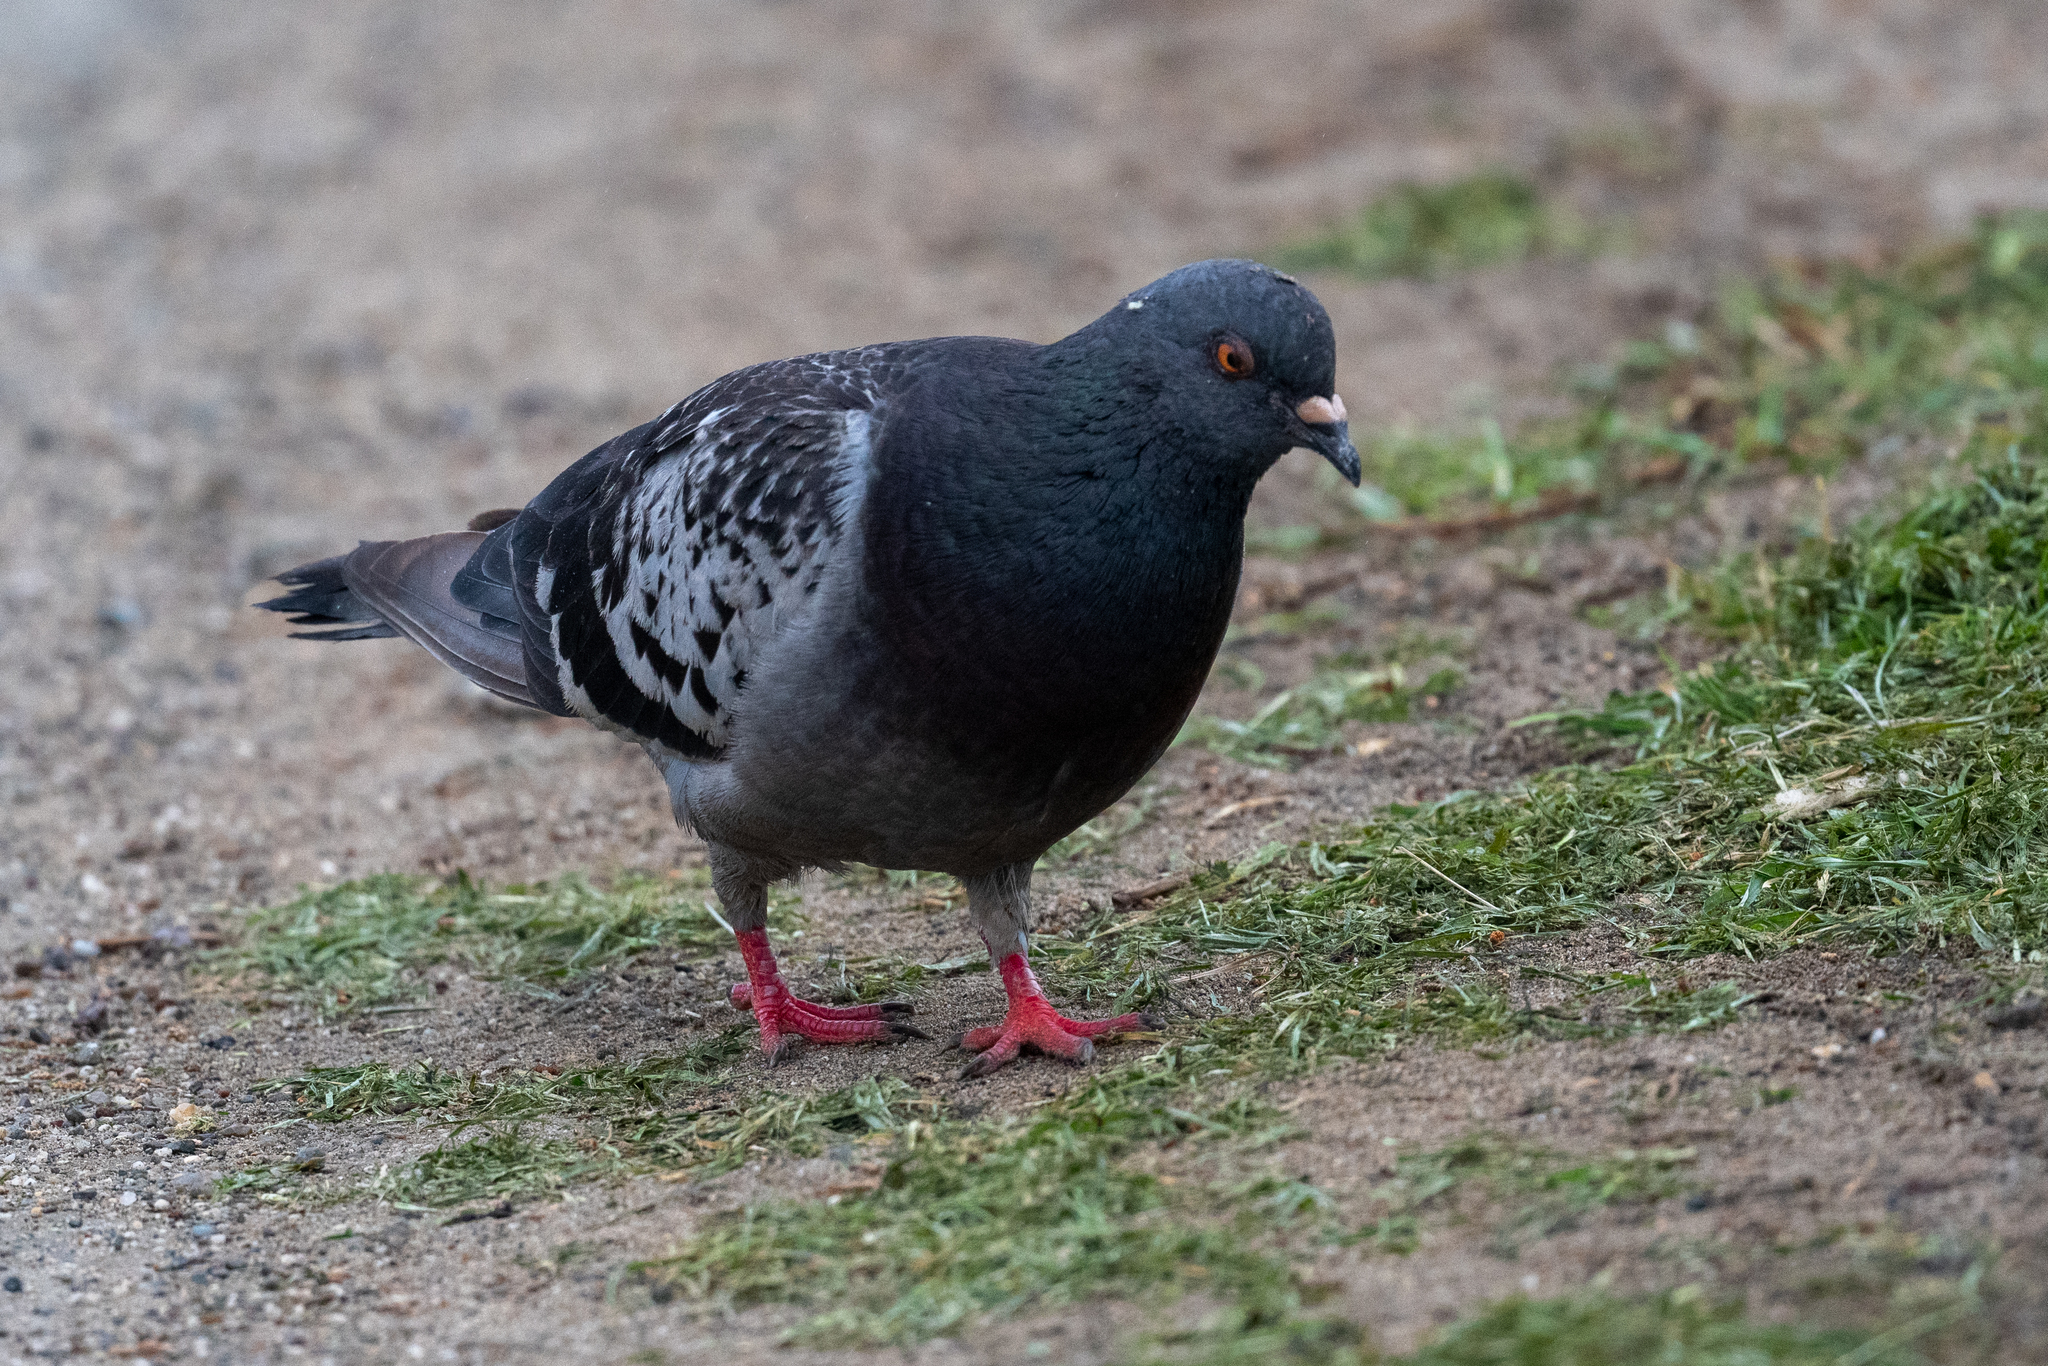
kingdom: Animalia
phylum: Chordata
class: Aves
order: Columbiformes
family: Columbidae
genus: Columba
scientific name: Columba livia
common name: Rock pigeon
